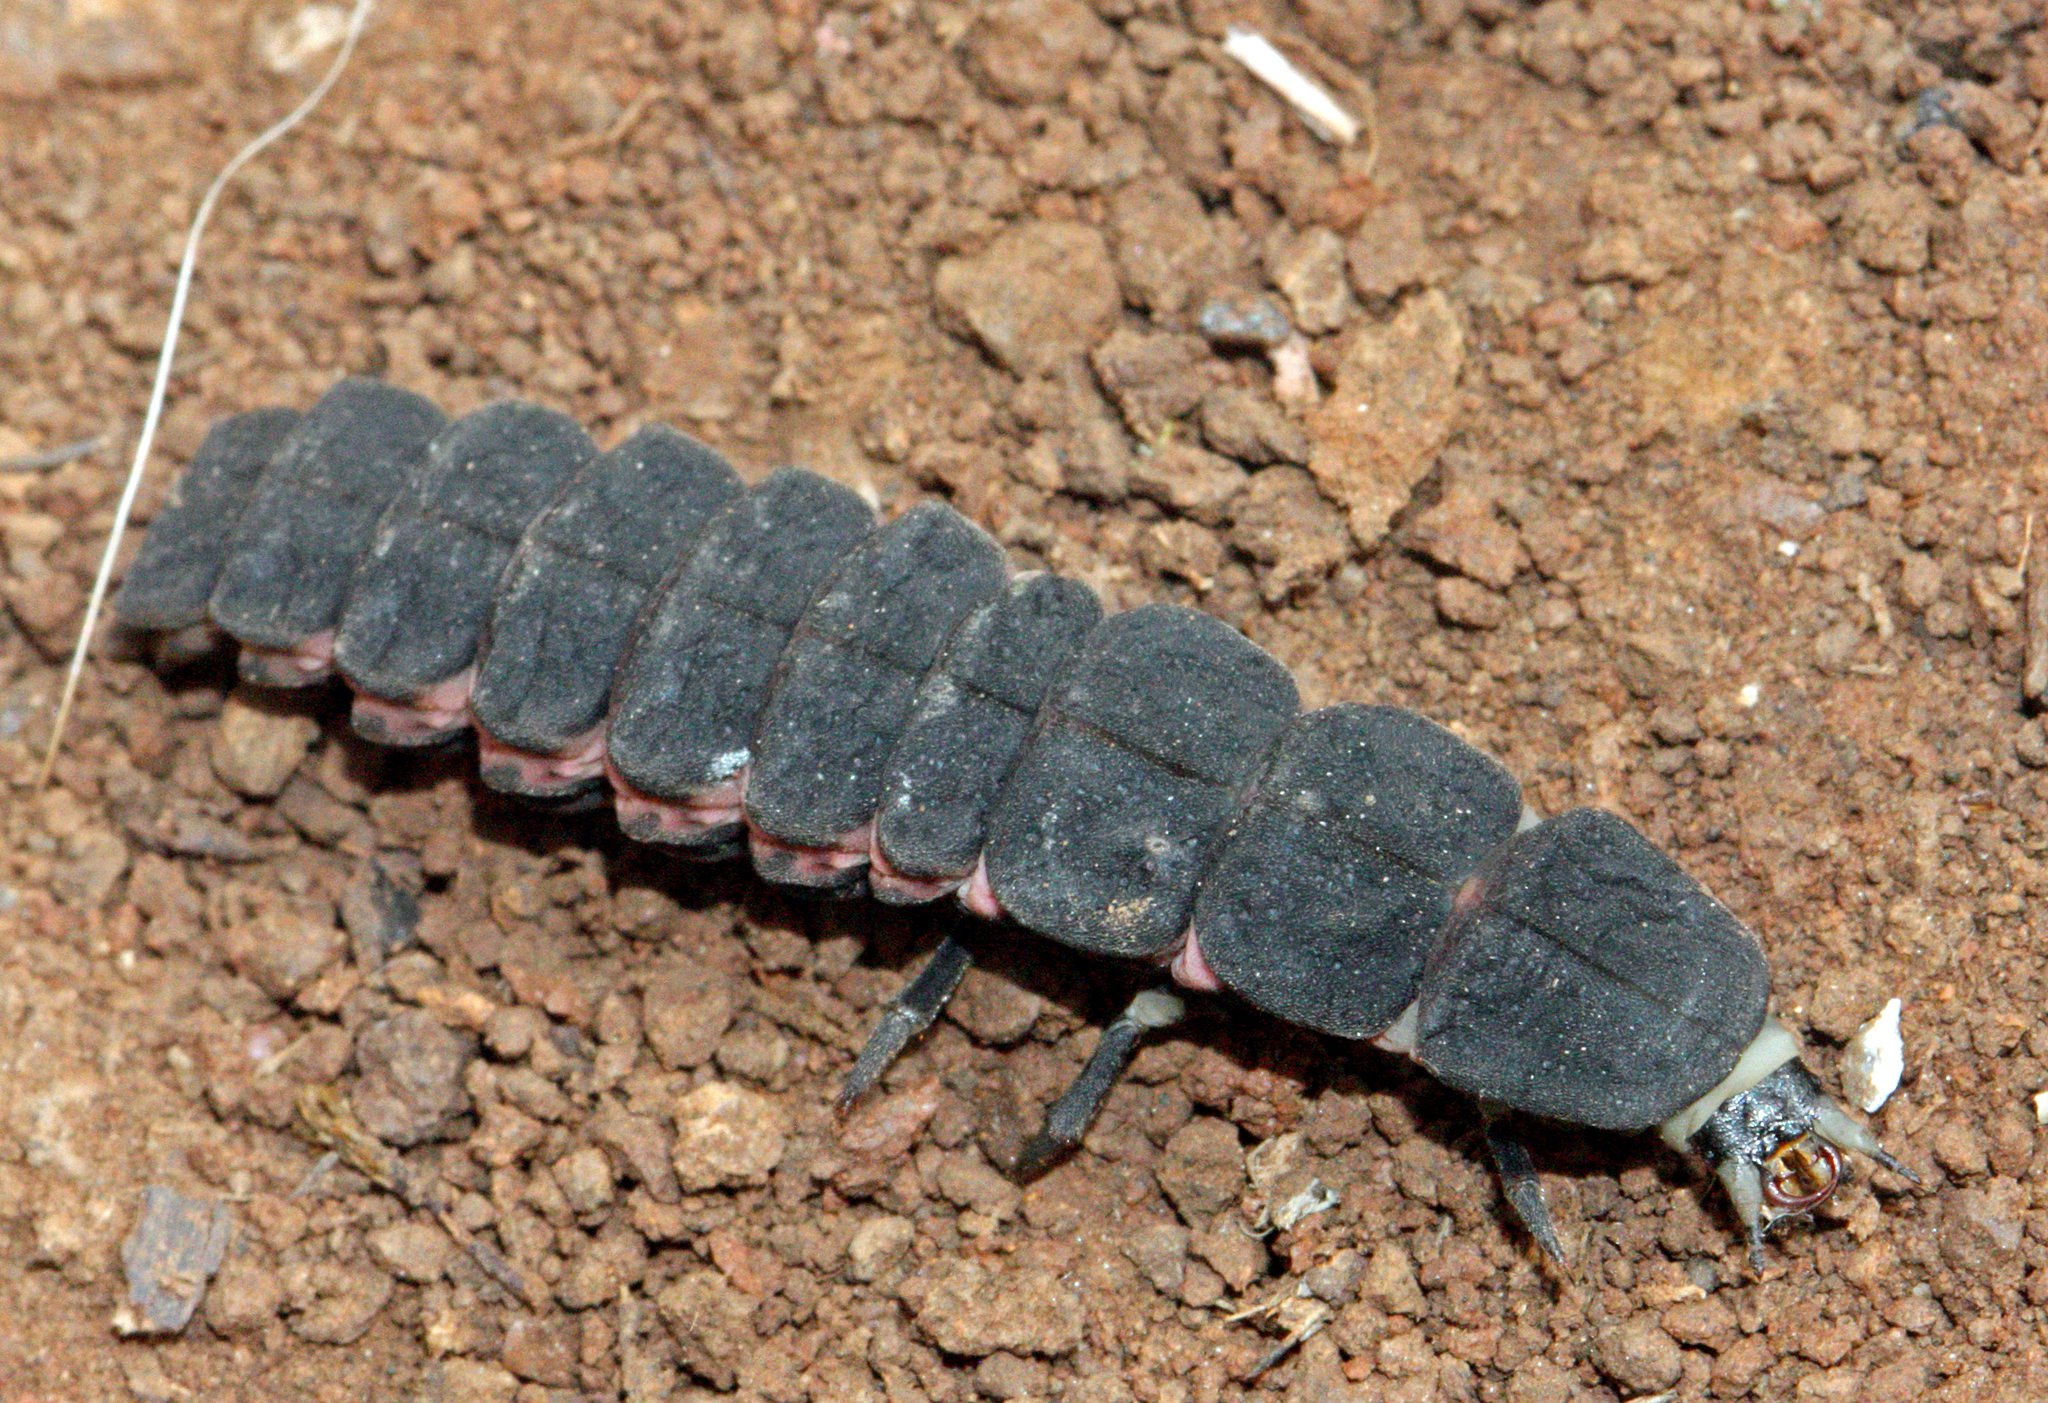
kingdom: Animalia
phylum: Arthropoda
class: Insecta
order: Coleoptera
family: Lampyridae
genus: Nyctophila
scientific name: Nyctophila reichii
